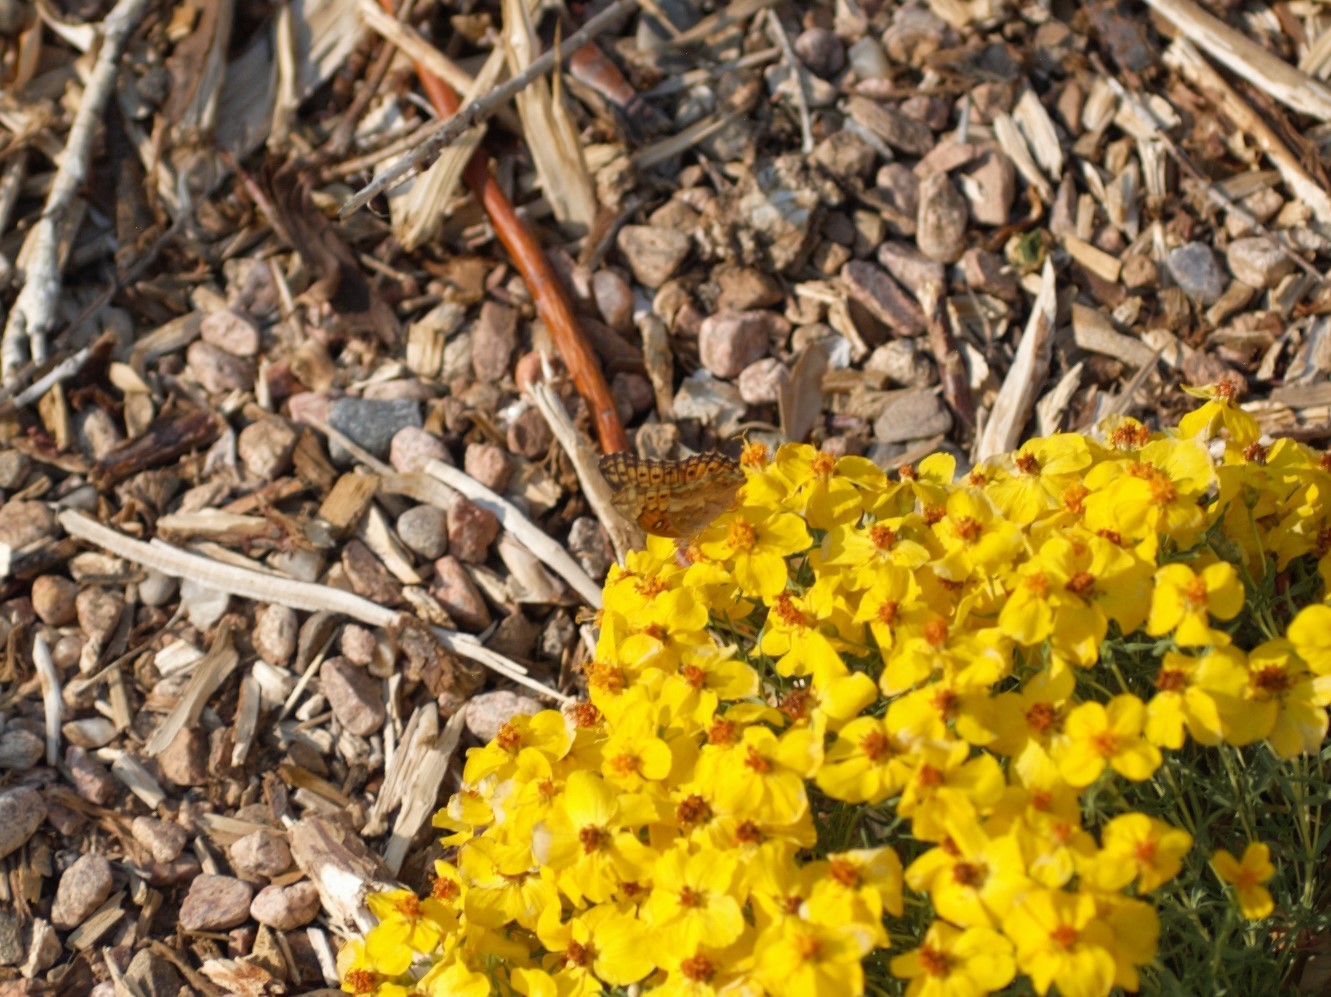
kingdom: Animalia
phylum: Arthropoda
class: Insecta
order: Lepidoptera
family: Nymphalidae
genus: Euptoieta
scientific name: Euptoieta claudia
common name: Variegated fritillary
